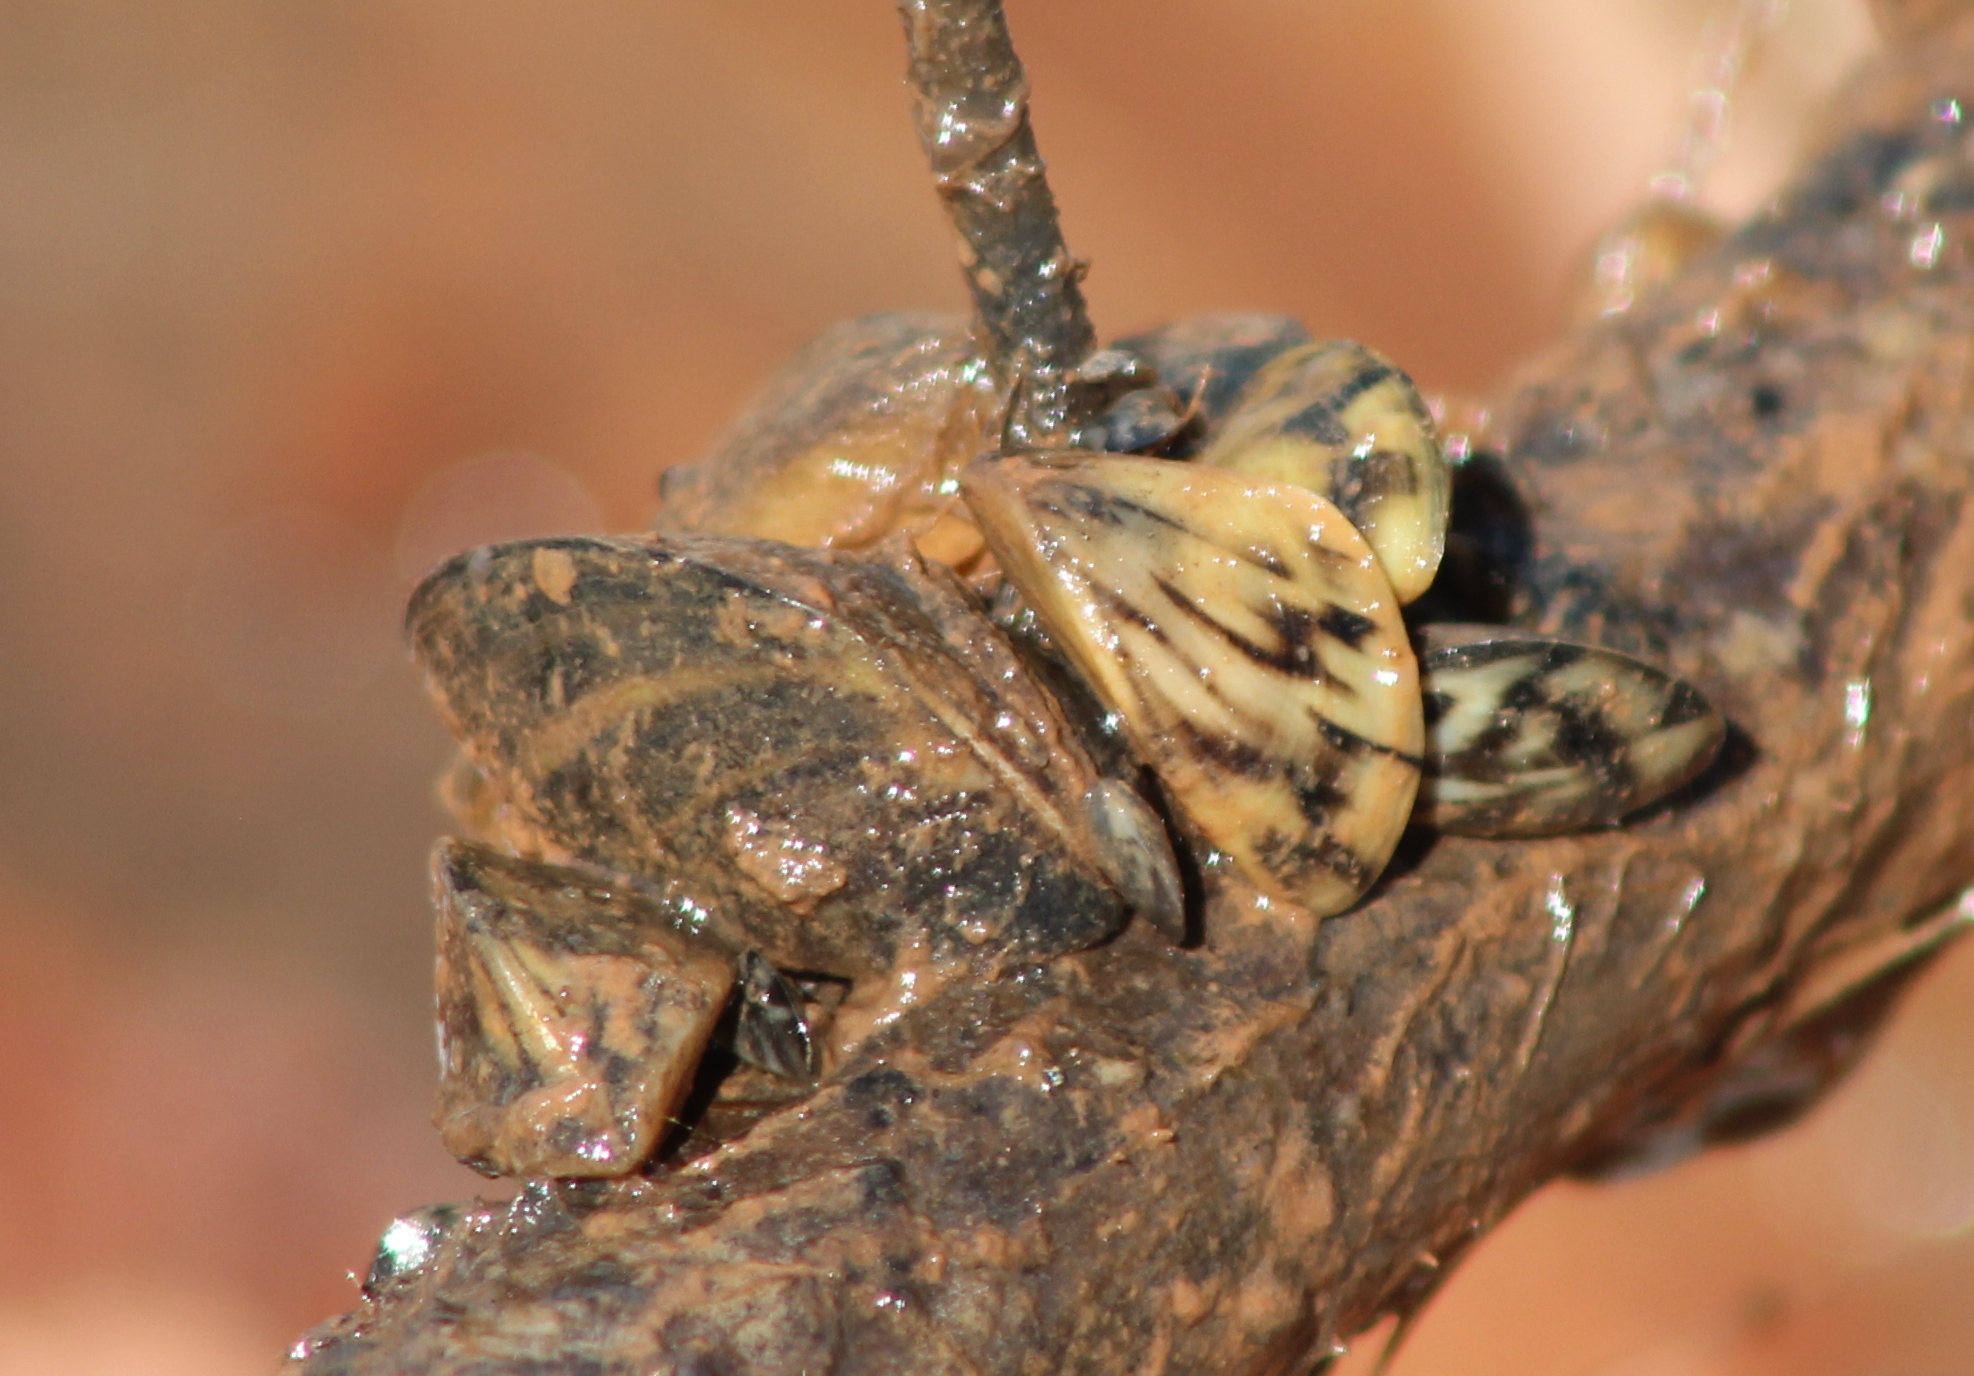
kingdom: Animalia
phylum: Mollusca
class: Bivalvia
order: Myida
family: Dreissenidae
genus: Dreissena
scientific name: Dreissena polymorpha
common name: Zebra mussel
